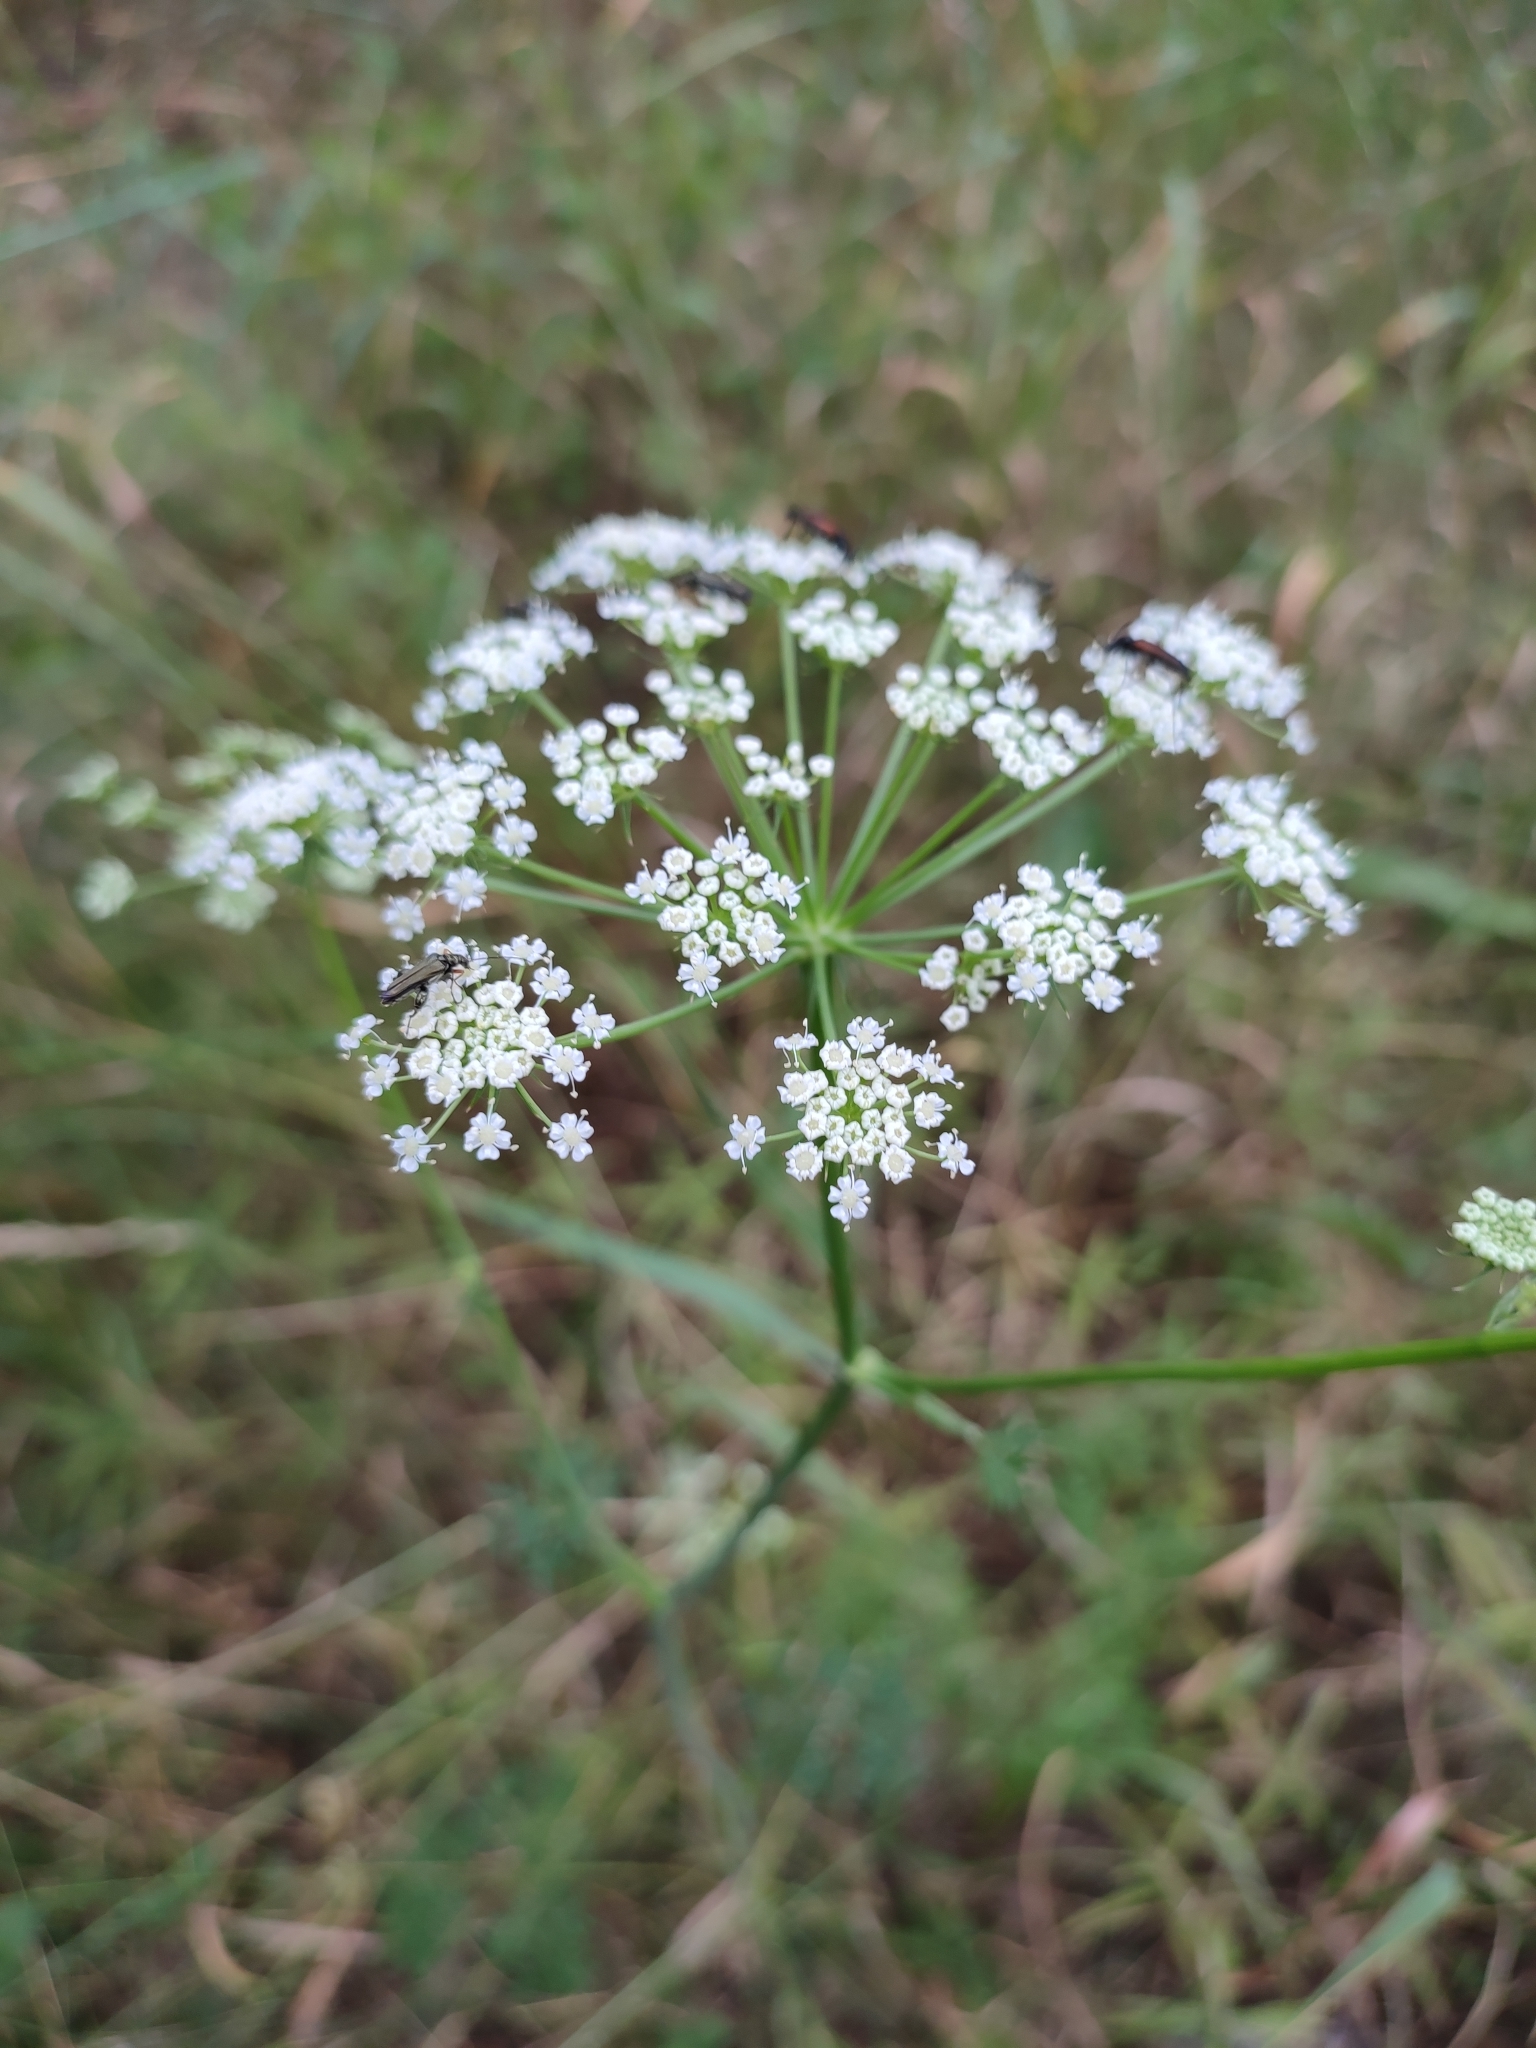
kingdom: Plantae
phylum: Tracheophyta
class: Magnoliopsida
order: Apiales
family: Apiaceae
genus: Oreoselinum
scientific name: Oreoselinum nigrum
